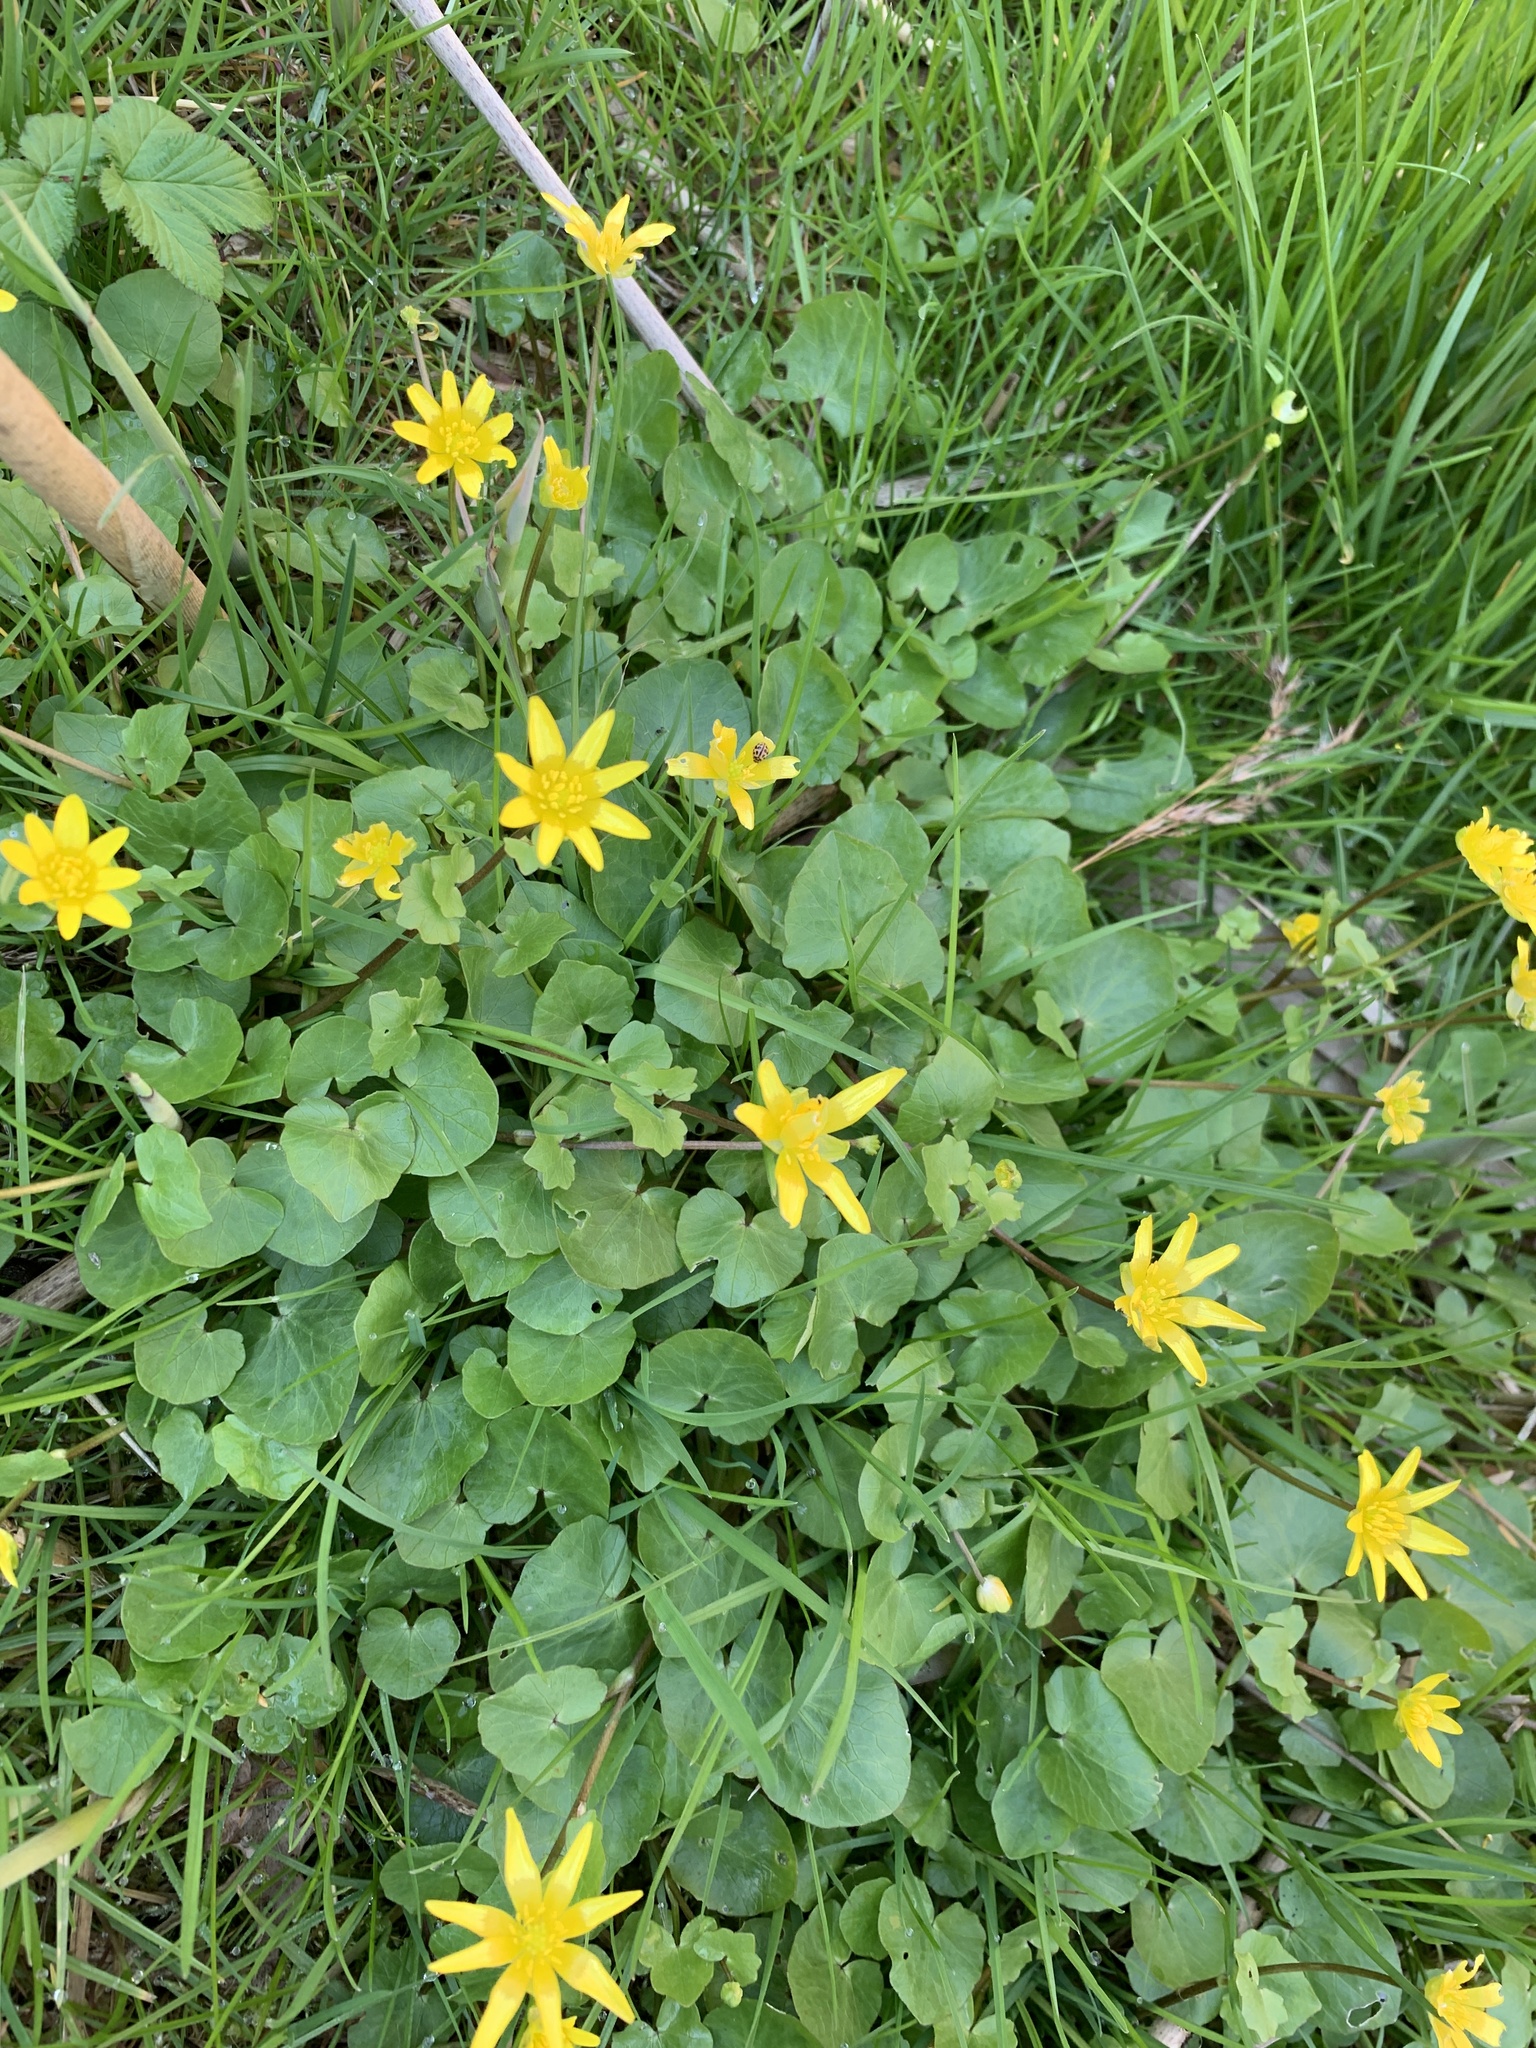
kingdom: Plantae
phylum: Tracheophyta
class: Magnoliopsida
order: Ranunculales
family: Ranunculaceae
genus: Ficaria
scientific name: Ficaria verna
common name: Lesser celandine
